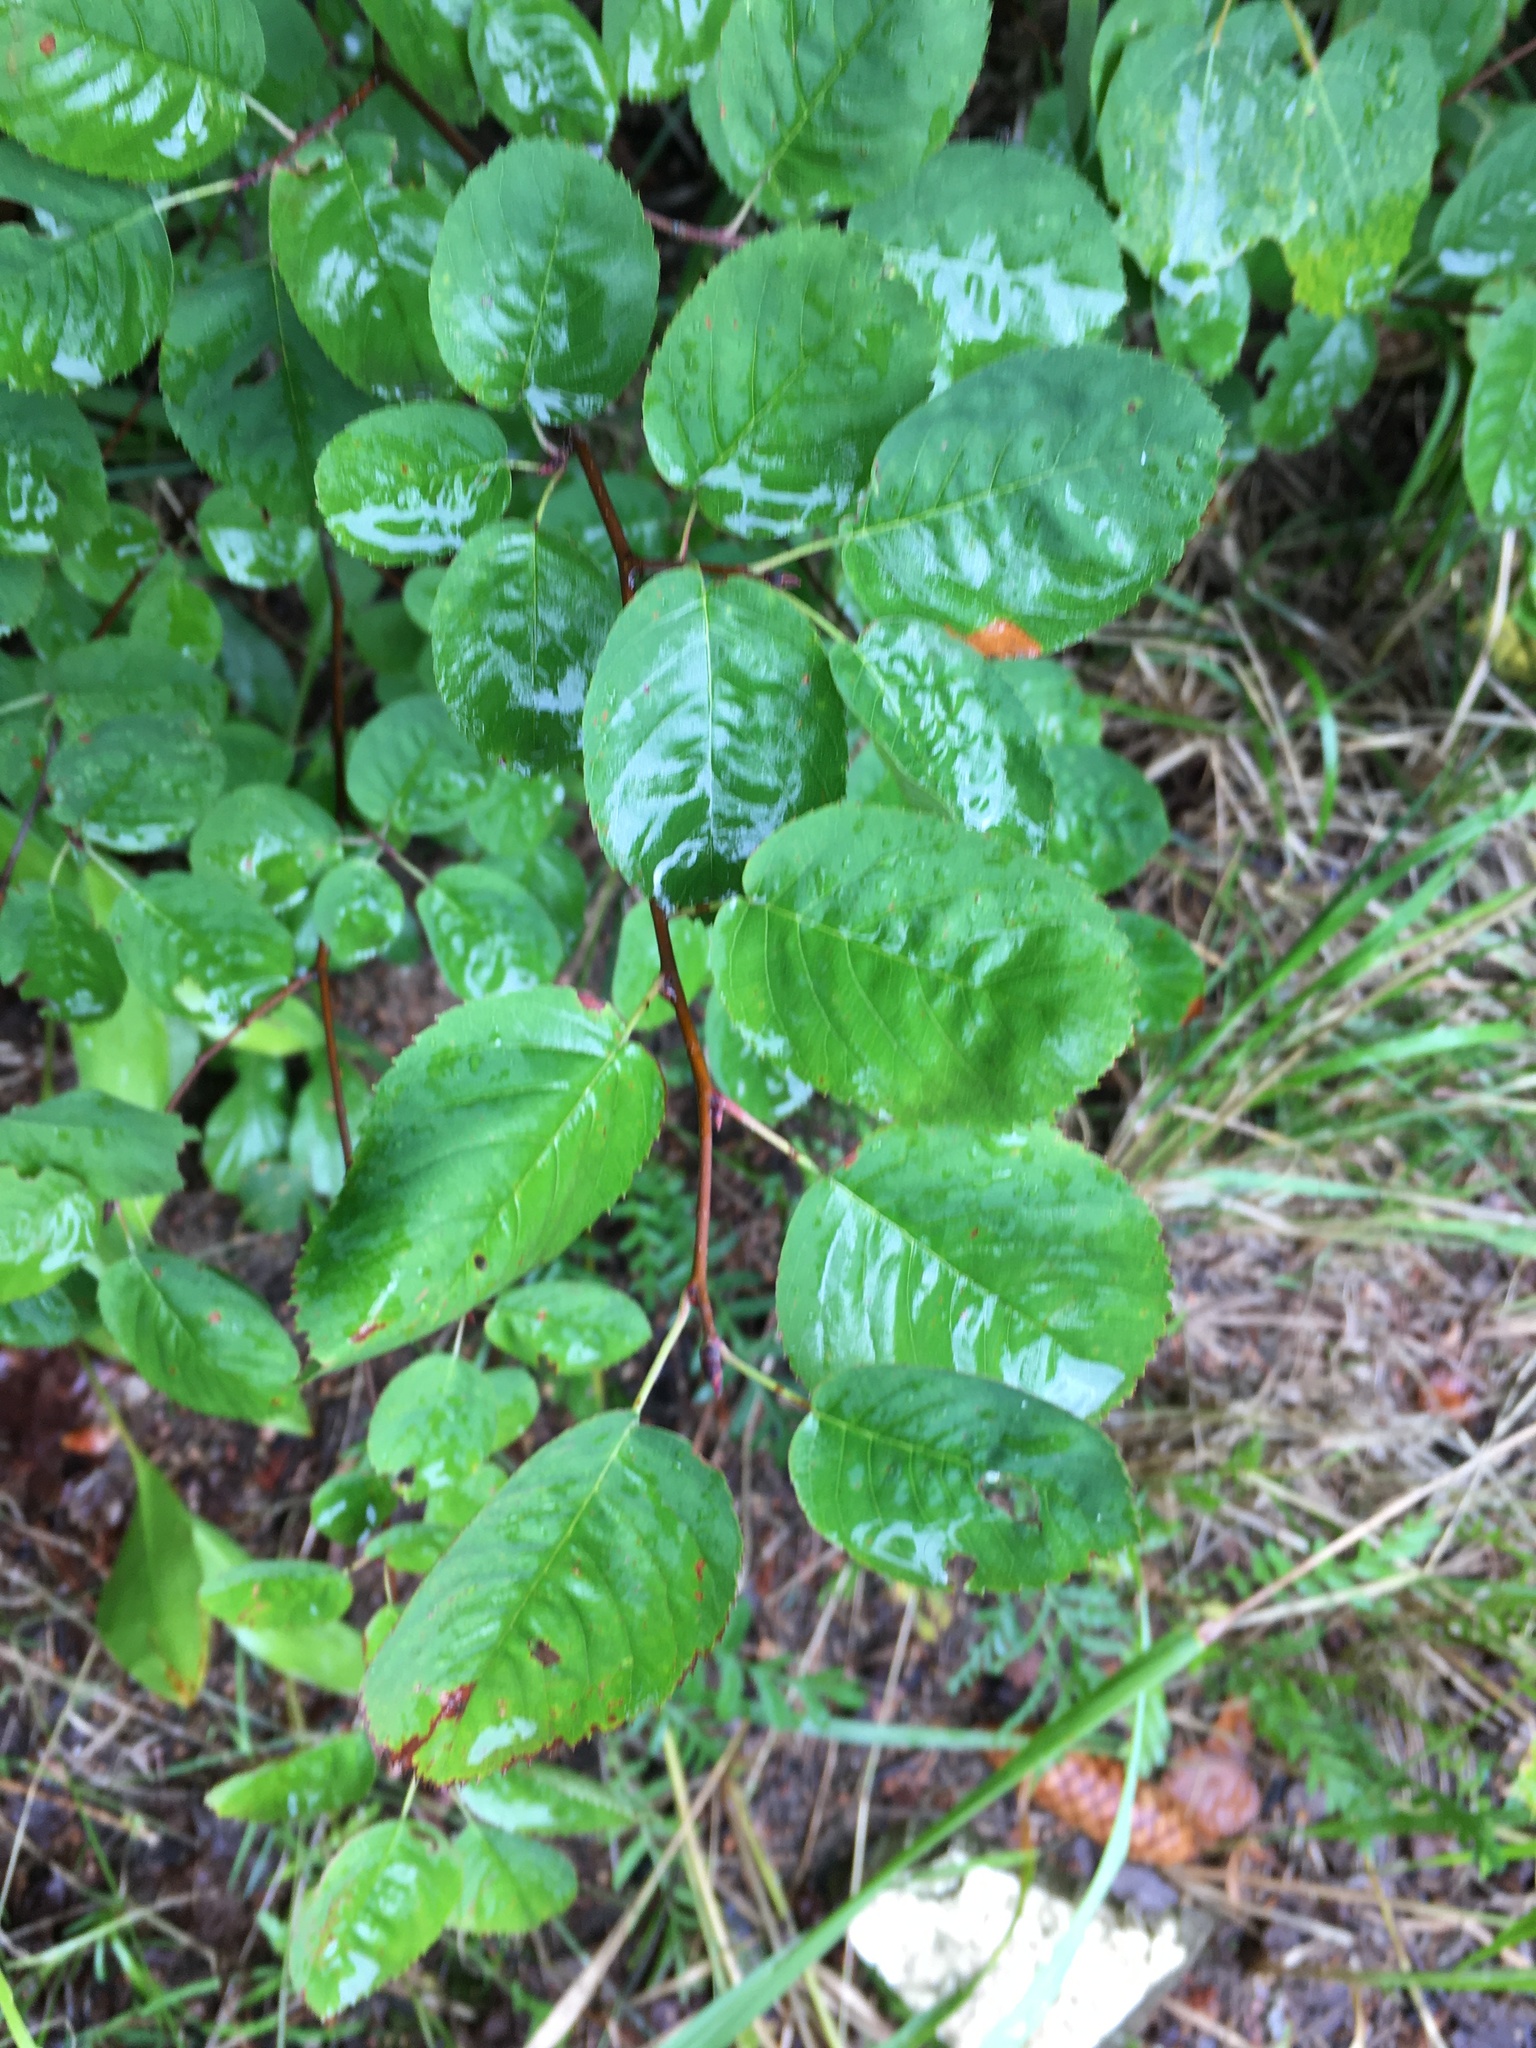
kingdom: Plantae
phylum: Tracheophyta
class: Magnoliopsida
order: Rosales
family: Rosaceae
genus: Amelanchier
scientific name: Amelanchier
